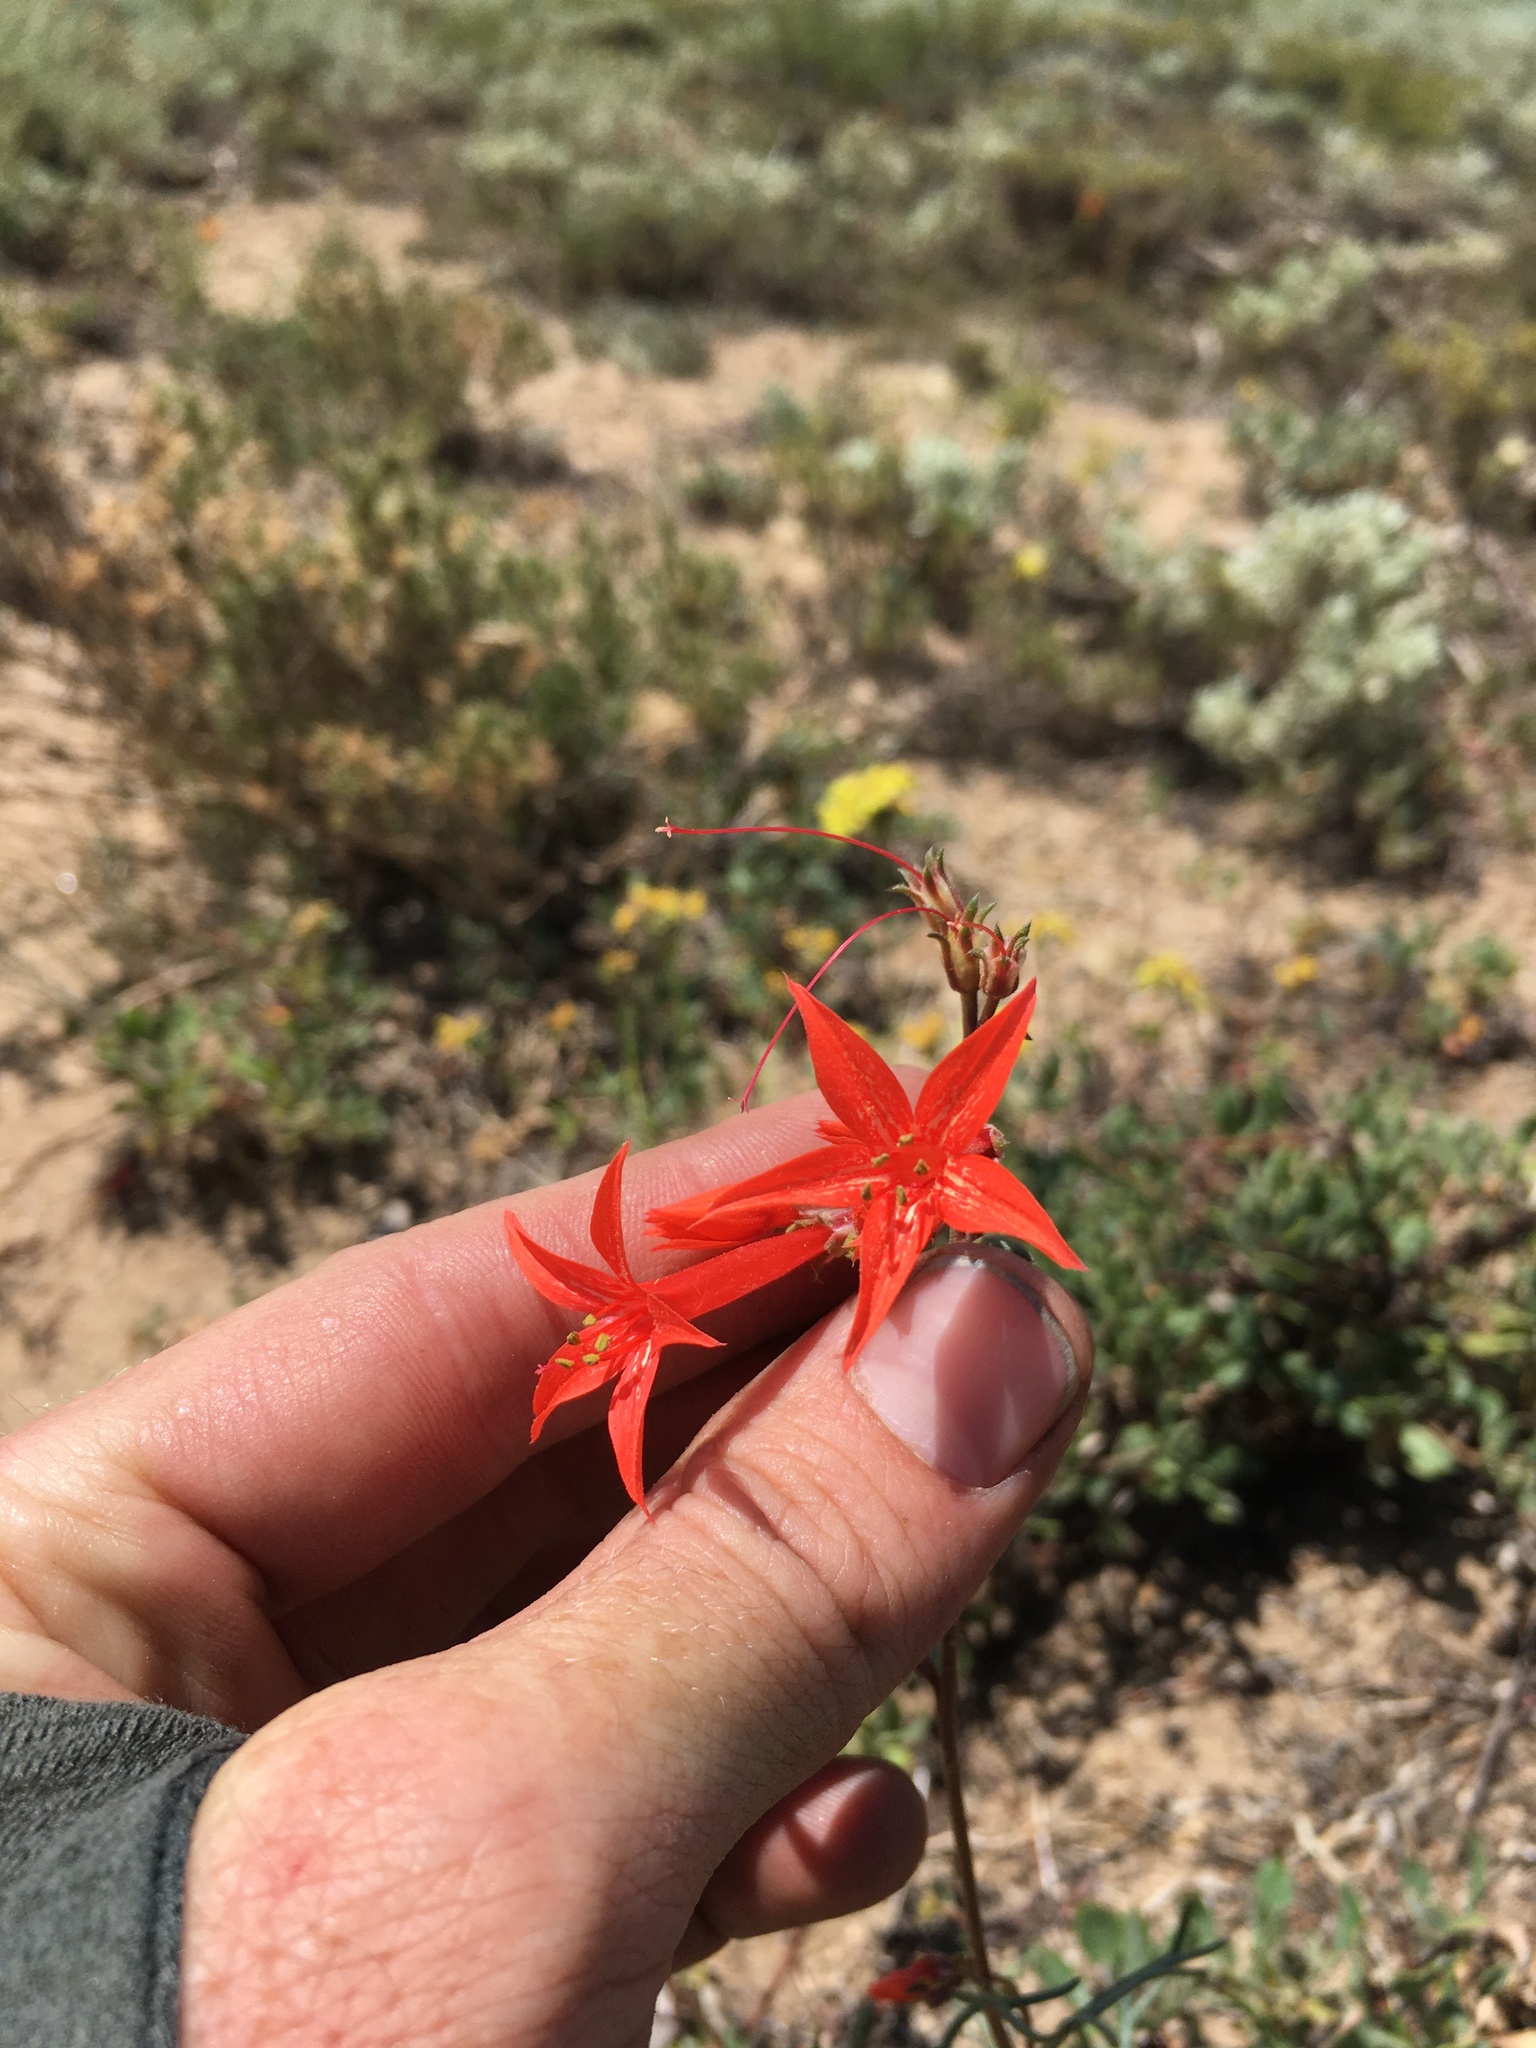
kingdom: Plantae
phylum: Tracheophyta
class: Magnoliopsida
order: Ericales
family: Polemoniaceae
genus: Ipomopsis
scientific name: Ipomopsis aggregata
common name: Scarlet gilia
